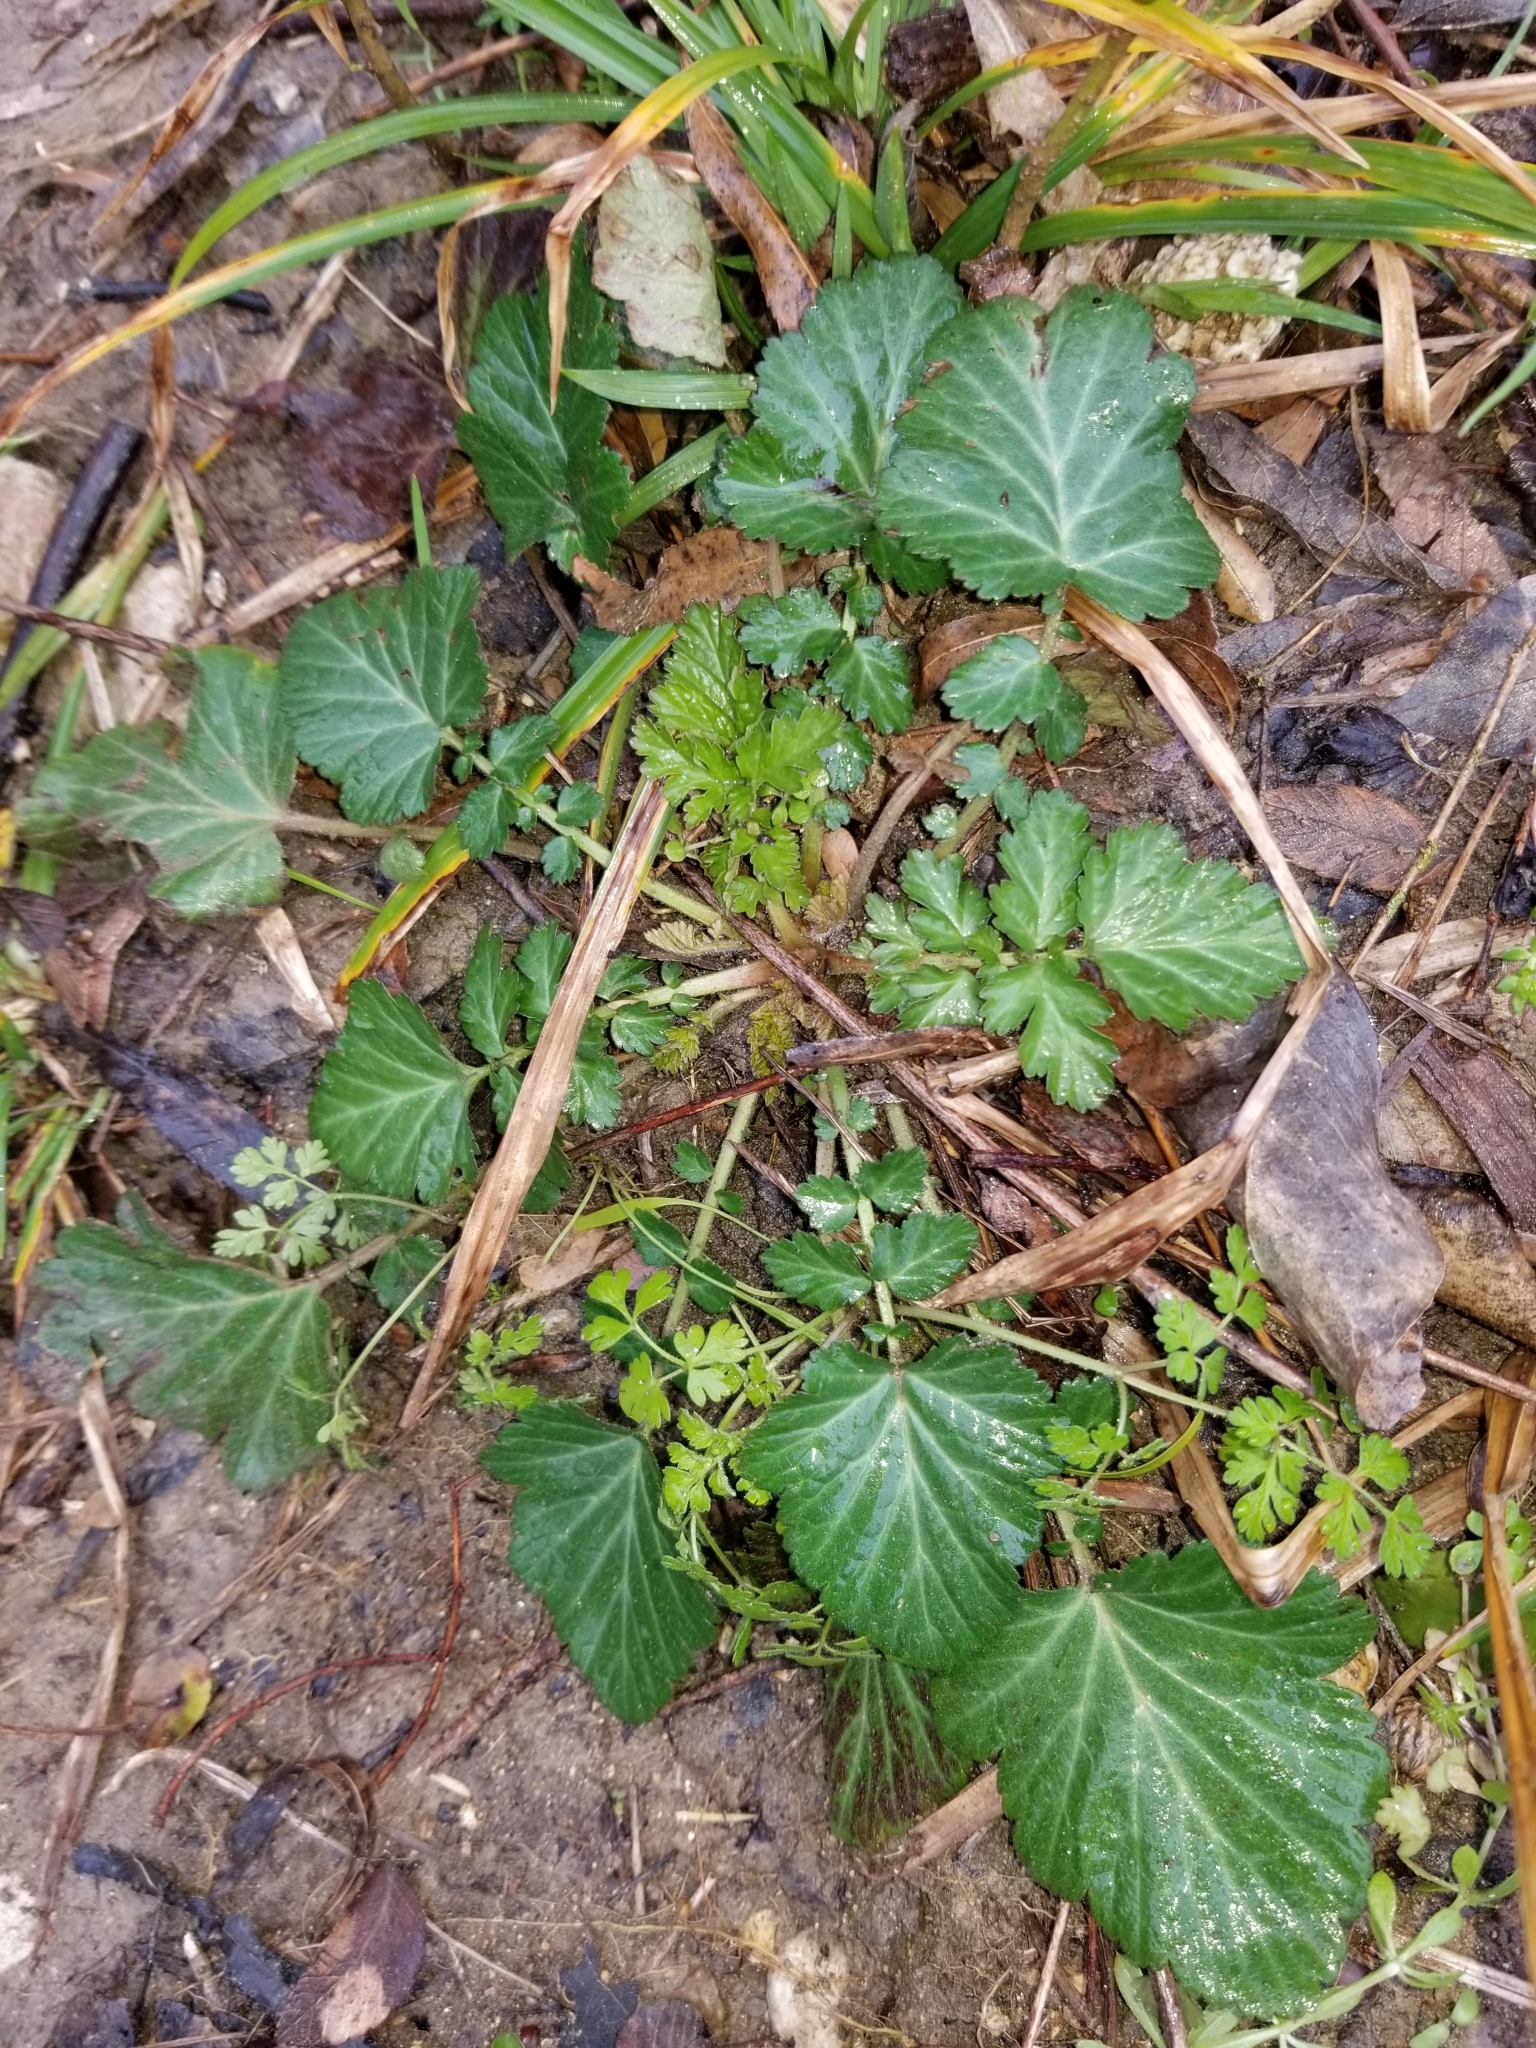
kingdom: Plantae
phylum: Tracheophyta
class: Magnoliopsida
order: Rosales
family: Rosaceae
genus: Geum
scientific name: Geum canadense
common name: White avens
